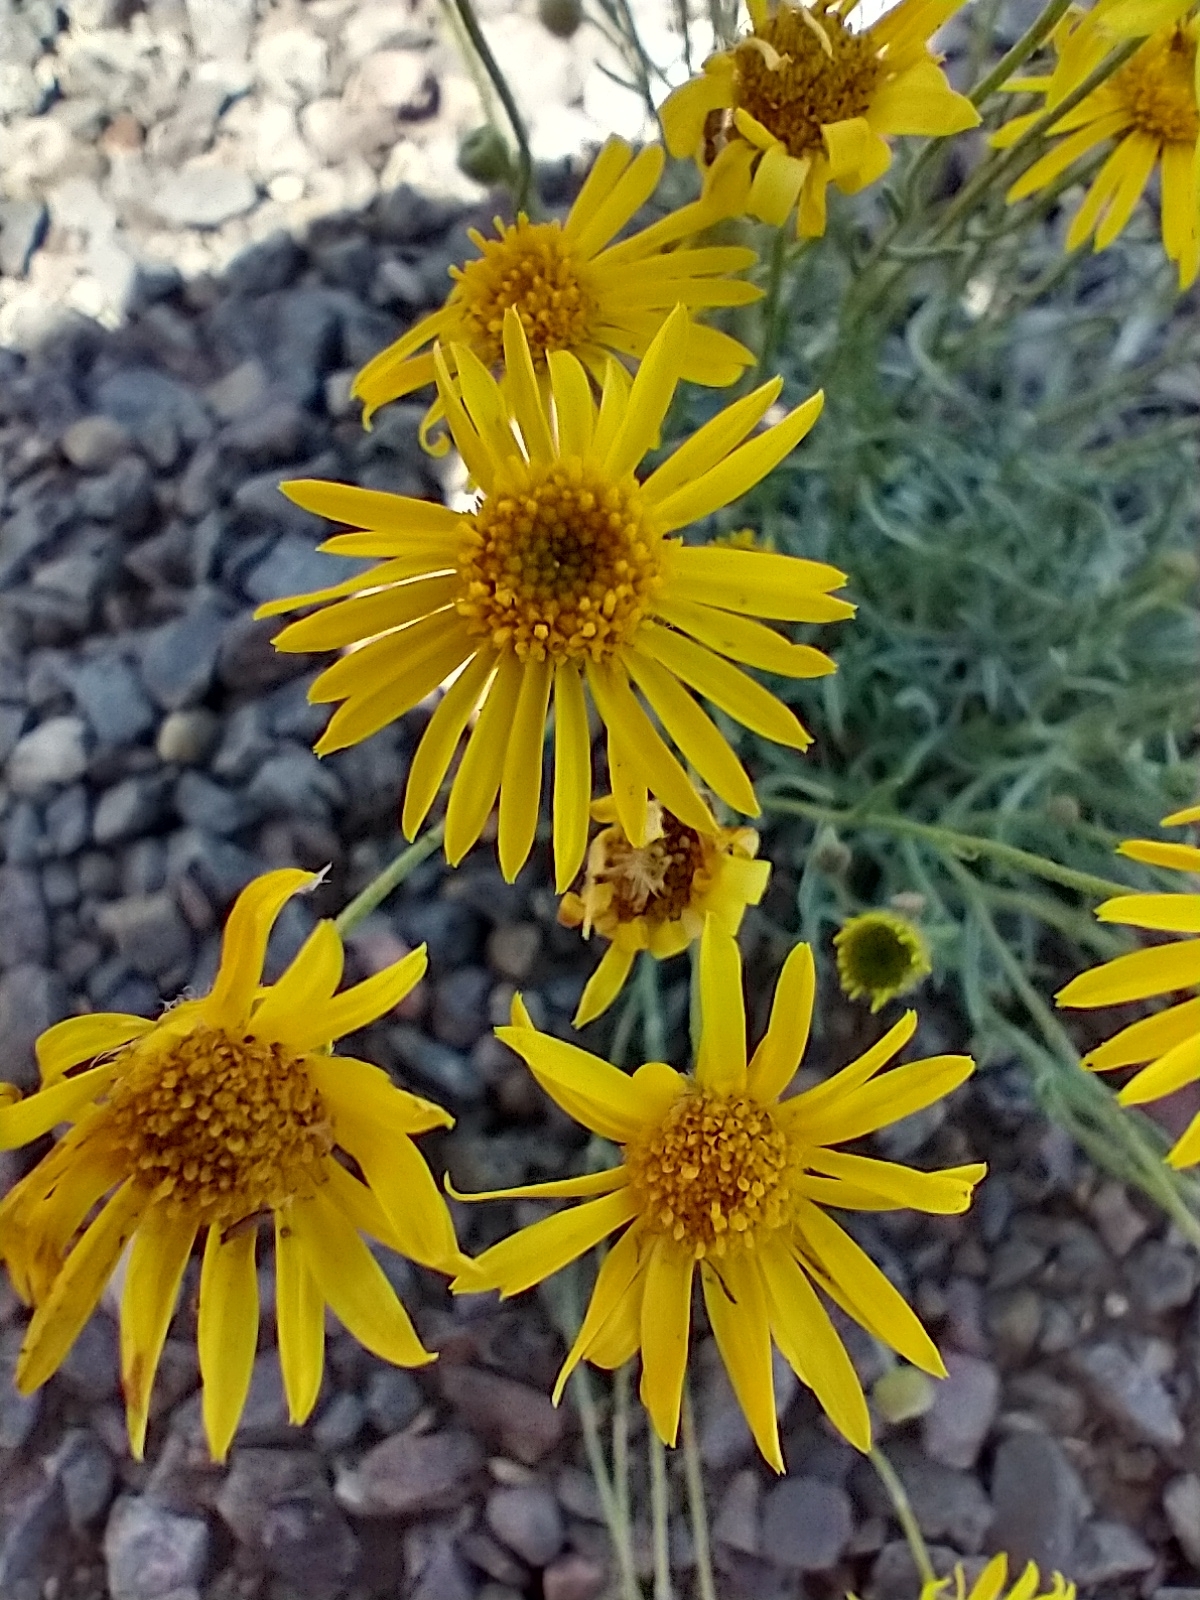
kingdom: Plantae
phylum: Tracheophyta
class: Magnoliopsida
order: Asterales
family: Asteraceae
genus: Erigeron
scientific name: Erigeron linearis
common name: Desert yellow fleabane
